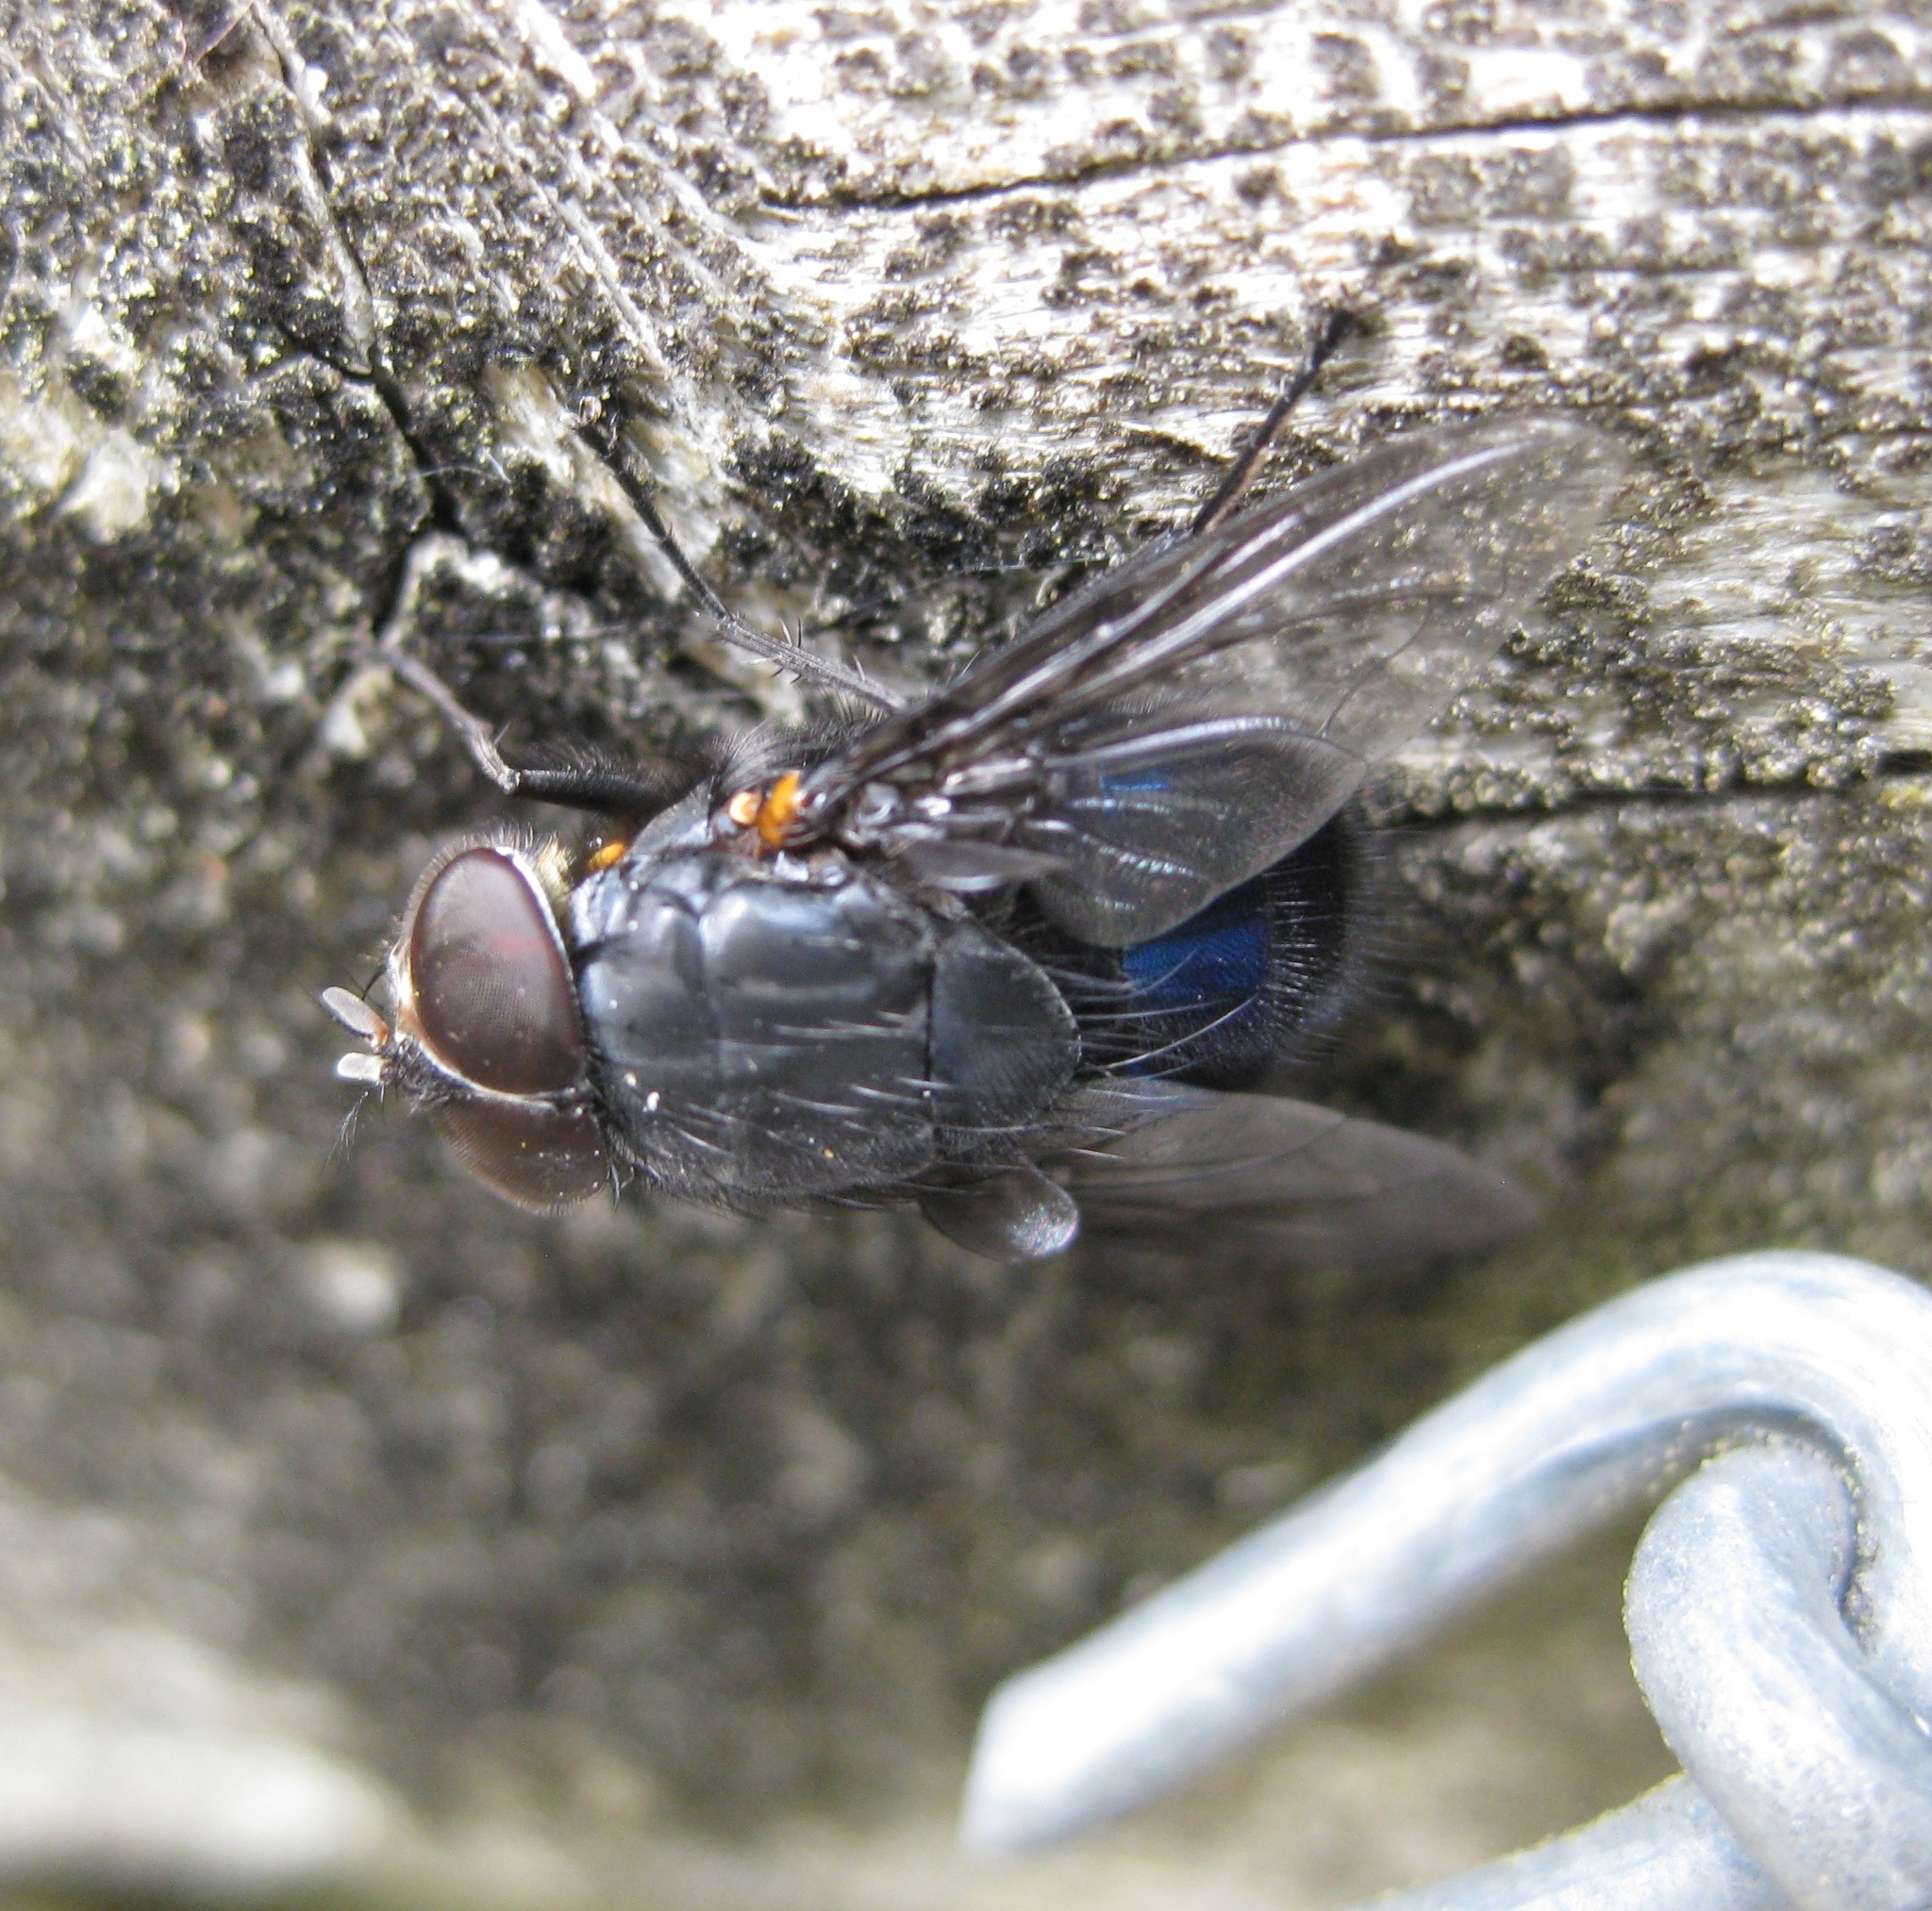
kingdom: Animalia
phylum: Arthropoda
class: Insecta
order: Diptera
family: Calliphoridae
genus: Calliphora
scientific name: Calliphora quadrimaculata
